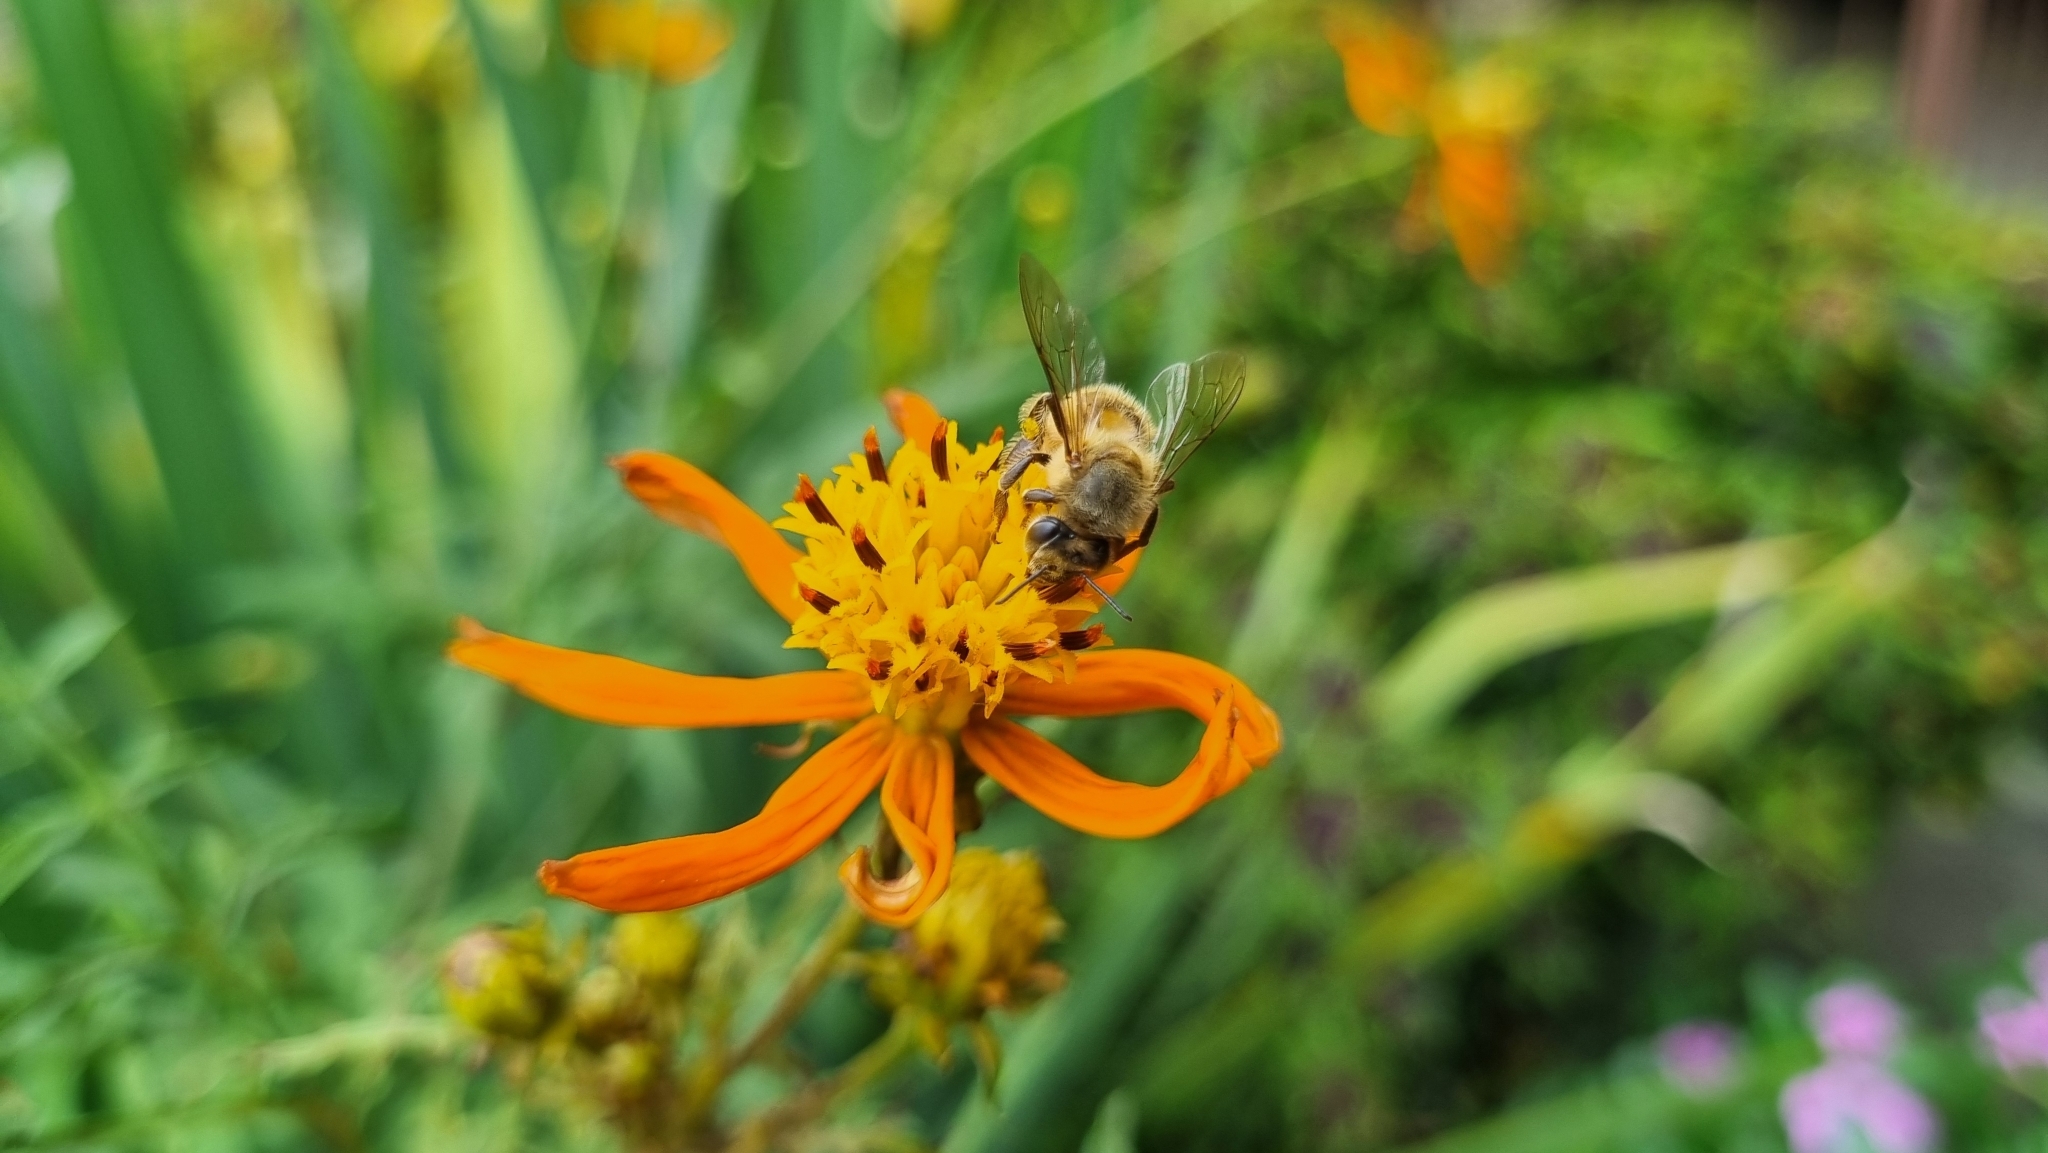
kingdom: Animalia
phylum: Arthropoda
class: Insecta
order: Hymenoptera
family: Apidae
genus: Apis
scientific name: Apis mellifera
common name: Honey bee
